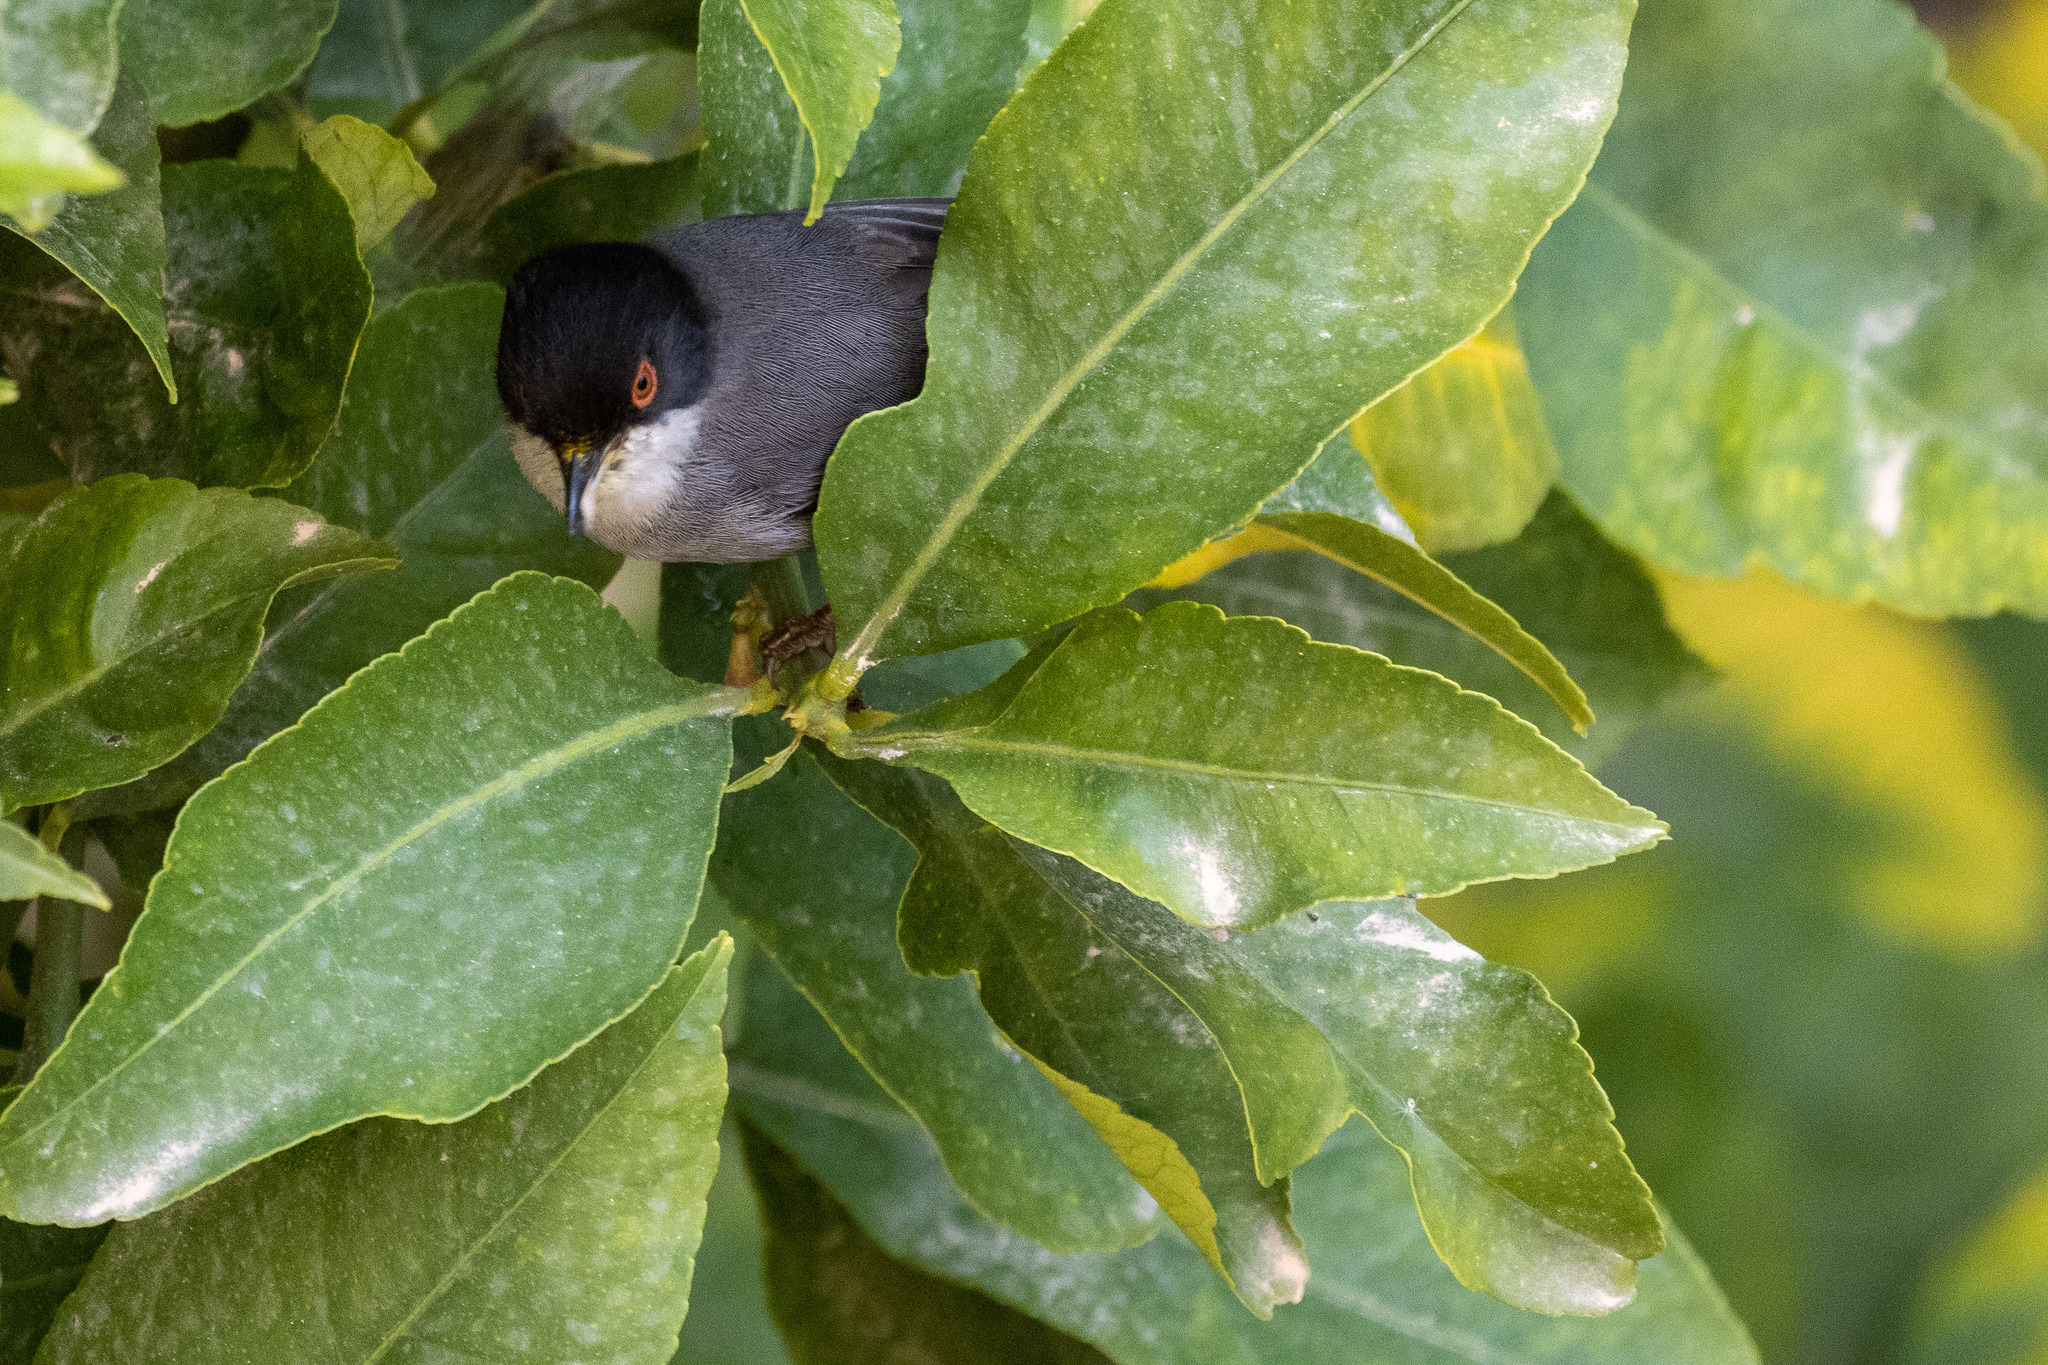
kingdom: Animalia
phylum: Chordata
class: Aves
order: Passeriformes
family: Sylviidae
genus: Curruca
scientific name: Curruca melanocephala
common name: Sardinian warbler
